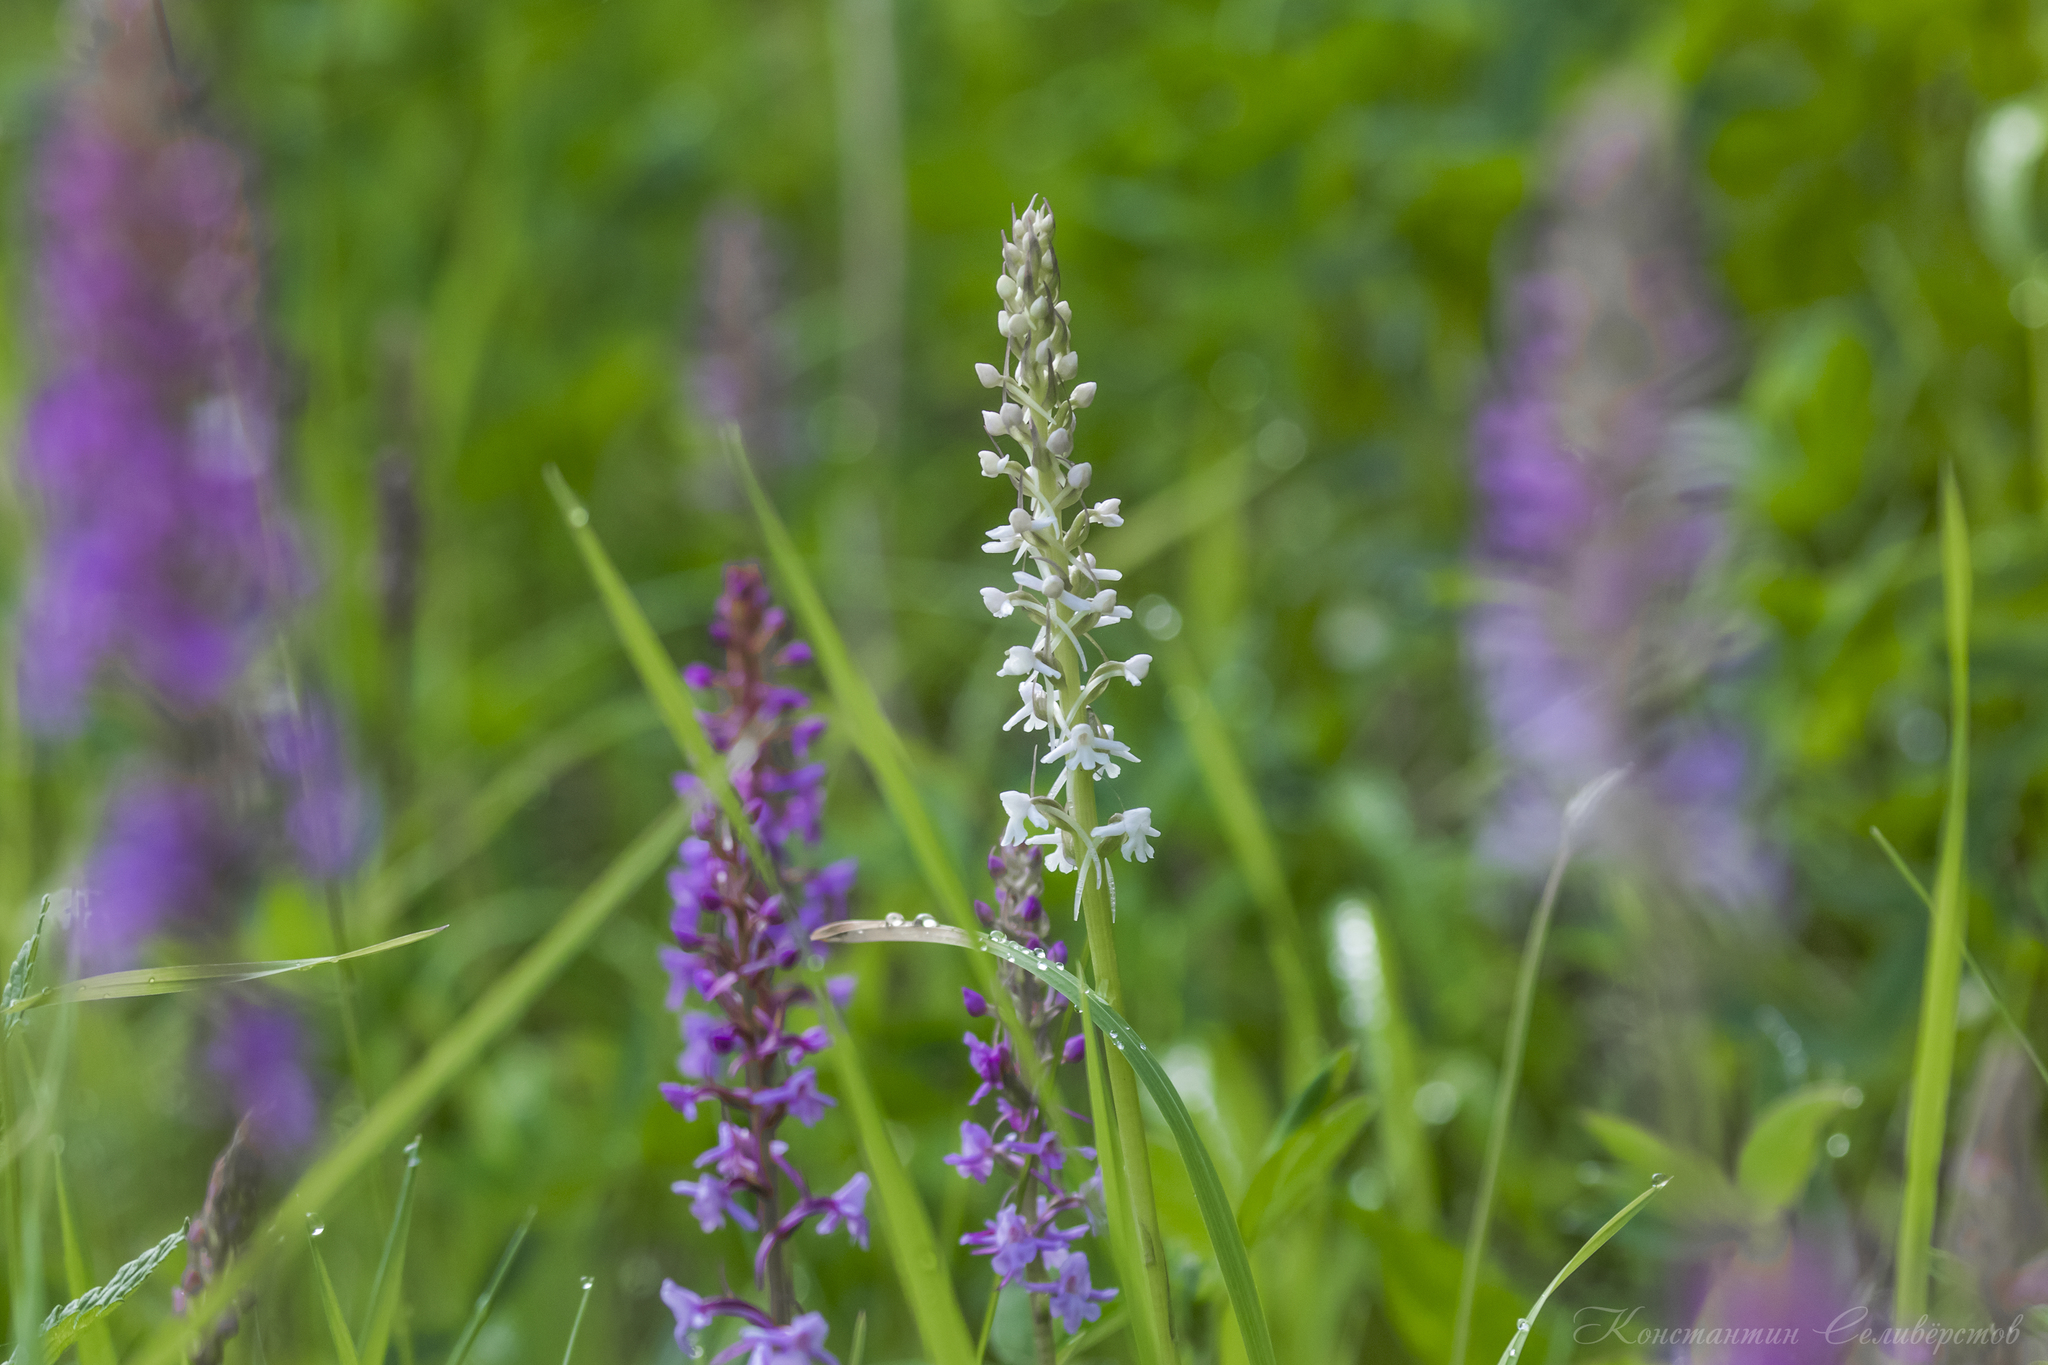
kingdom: Plantae
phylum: Tracheophyta
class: Liliopsida
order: Asparagales
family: Orchidaceae
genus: Gymnadenia
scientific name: Gymnadenia conopsea
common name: Fragrant orchid
